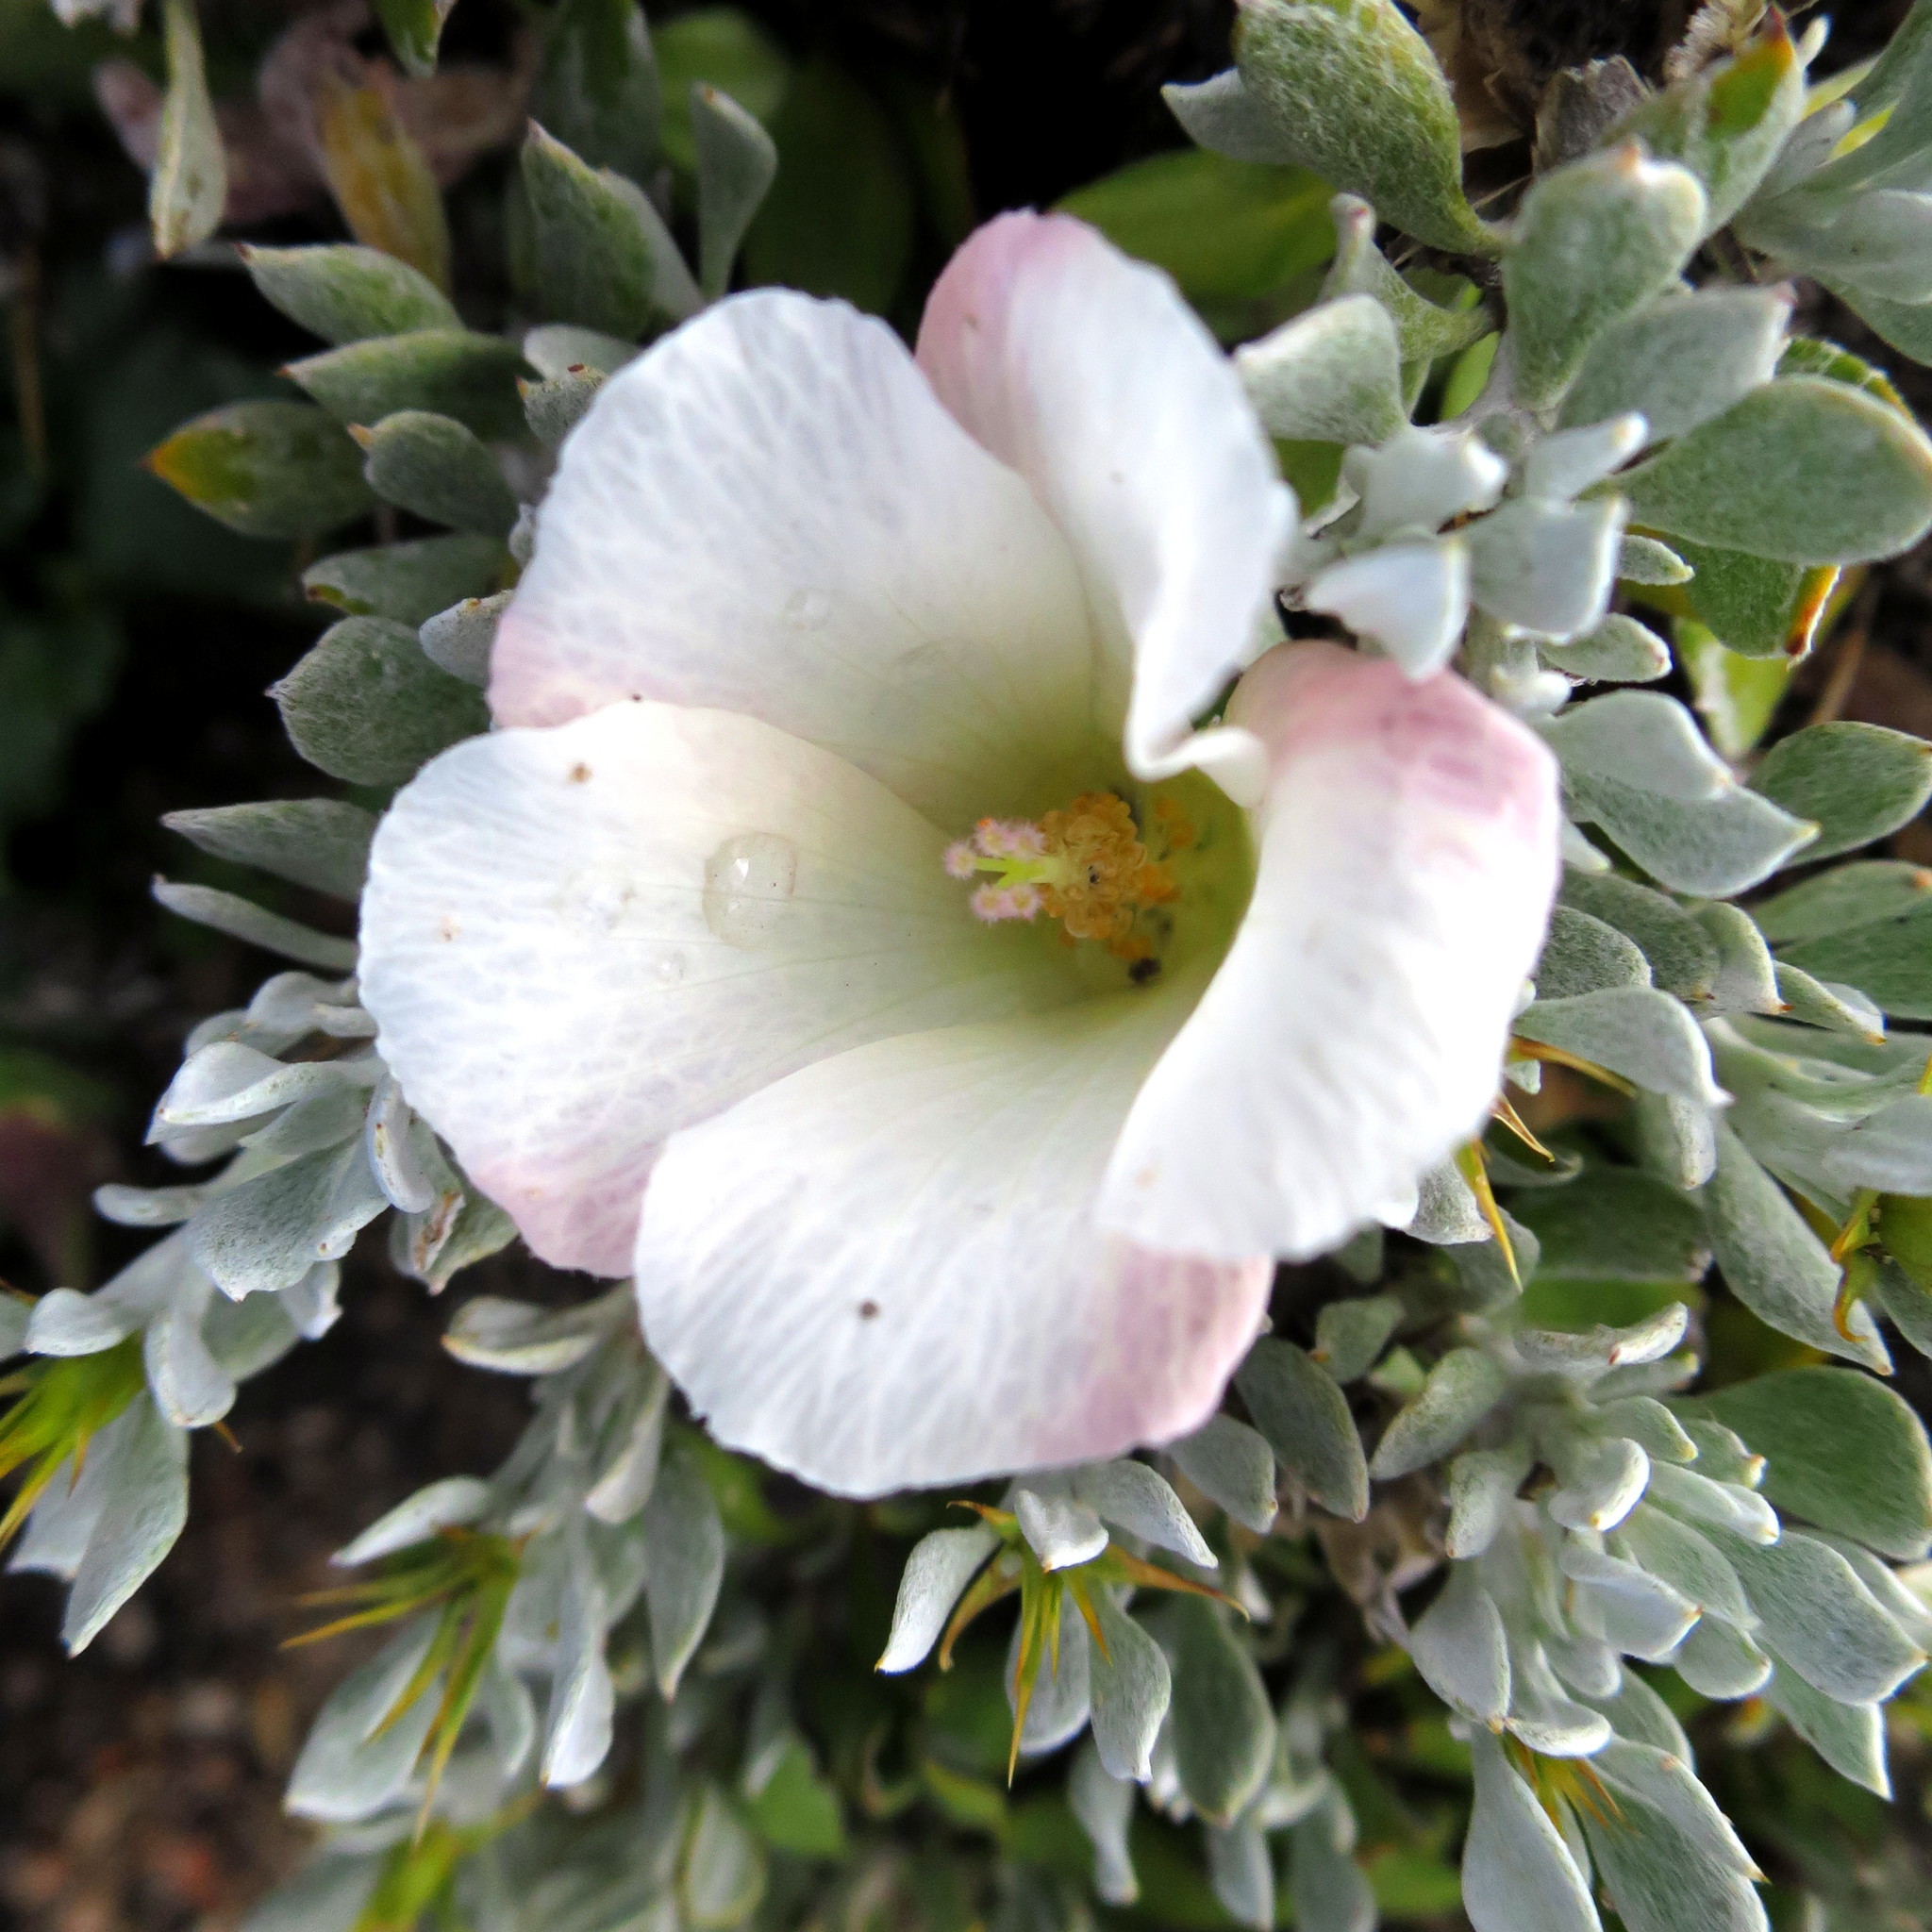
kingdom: Plantae
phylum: Tracheophyta
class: Magnoliopsida
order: Malvales
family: Malvaceae
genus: Hibiscus
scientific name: Hibiscus pusillus
